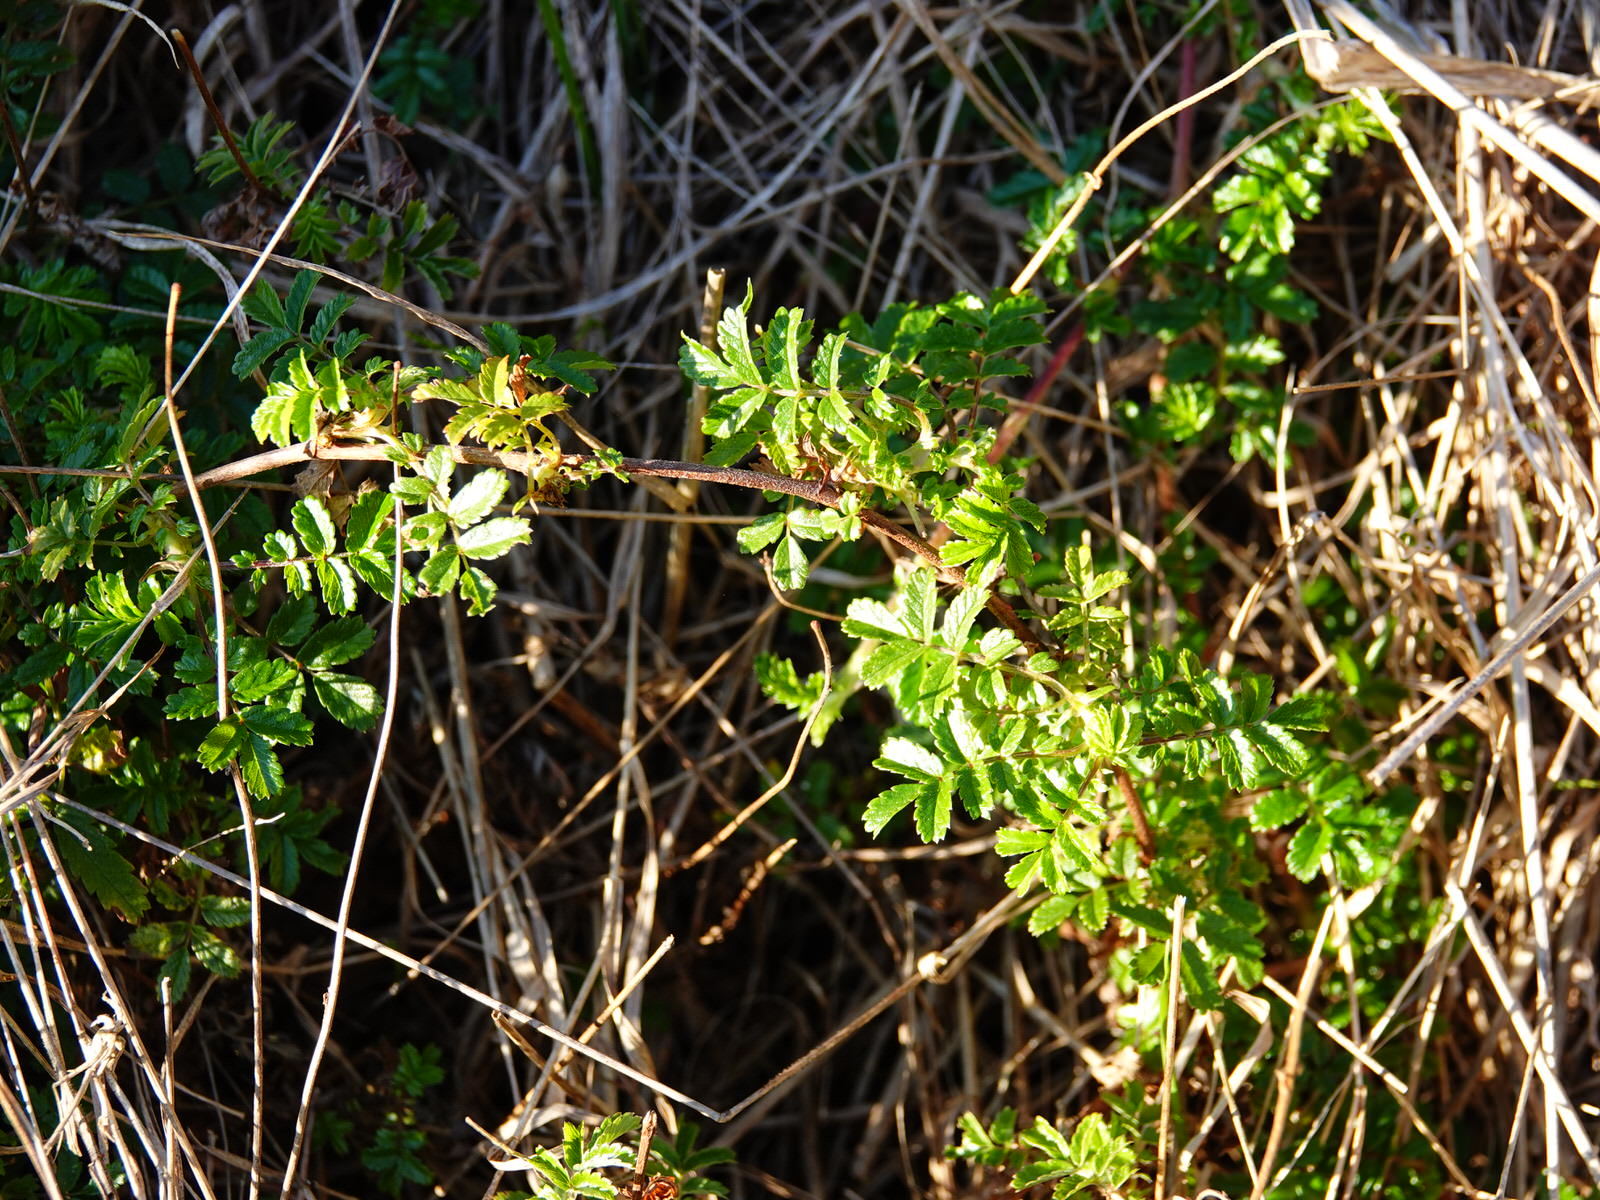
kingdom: Plantae
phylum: Tracheophyta
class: Magnoliopsida
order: Rosales
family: Rosaceae
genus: Acaena
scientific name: Acaena novae-zelandiae
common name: Pirri-pirri-bur
